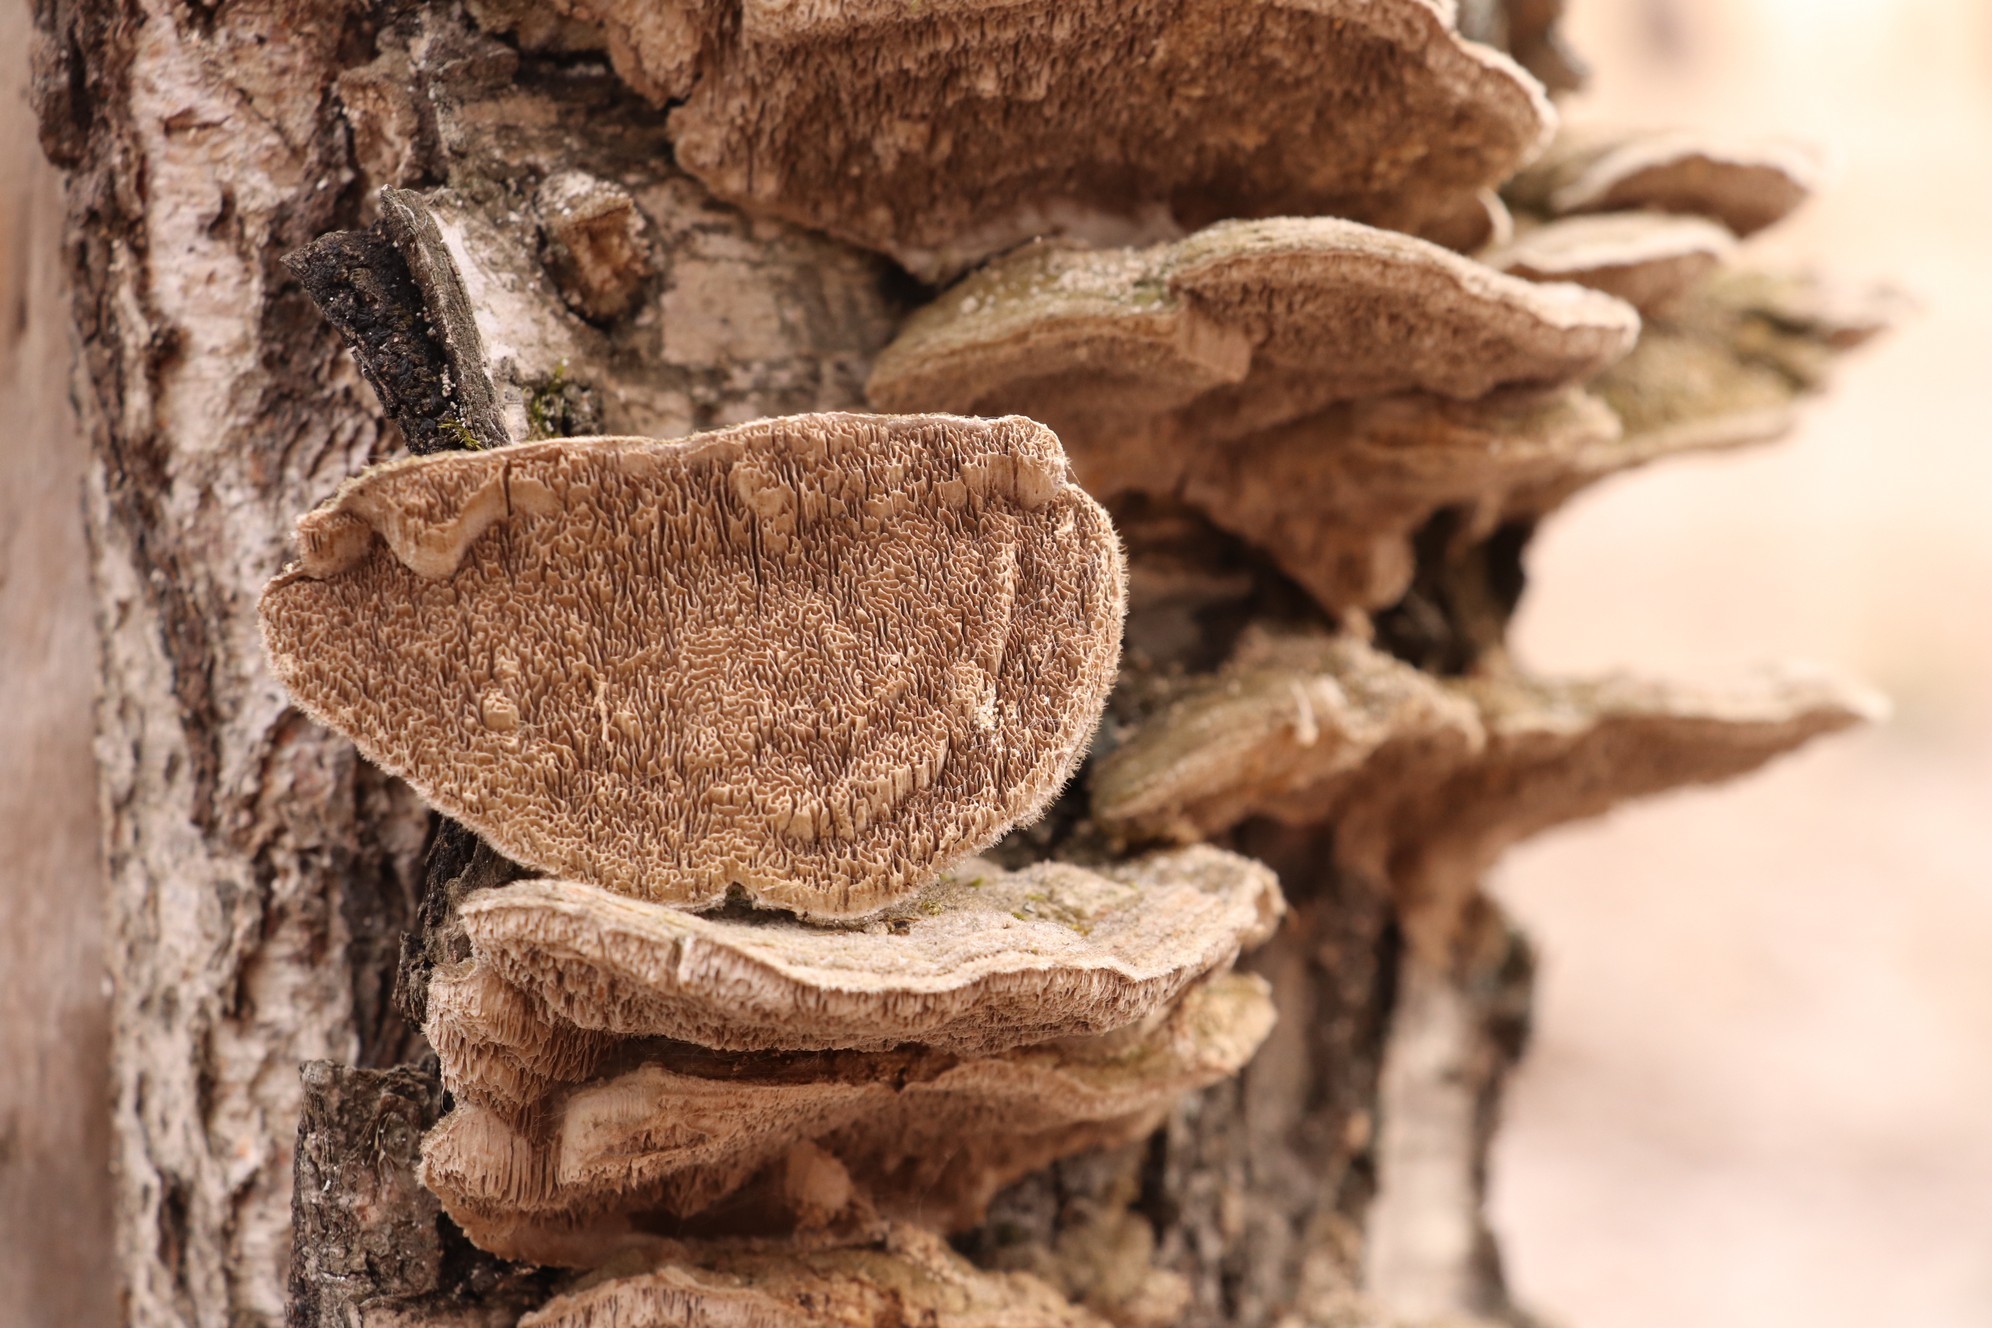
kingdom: Fungi
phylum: Basidiomycota
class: Agaricomycetes
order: Polyporales
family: Cerrenaceae
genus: Cerrena
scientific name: Cerrena unicolor
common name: Mossy maze polypore
